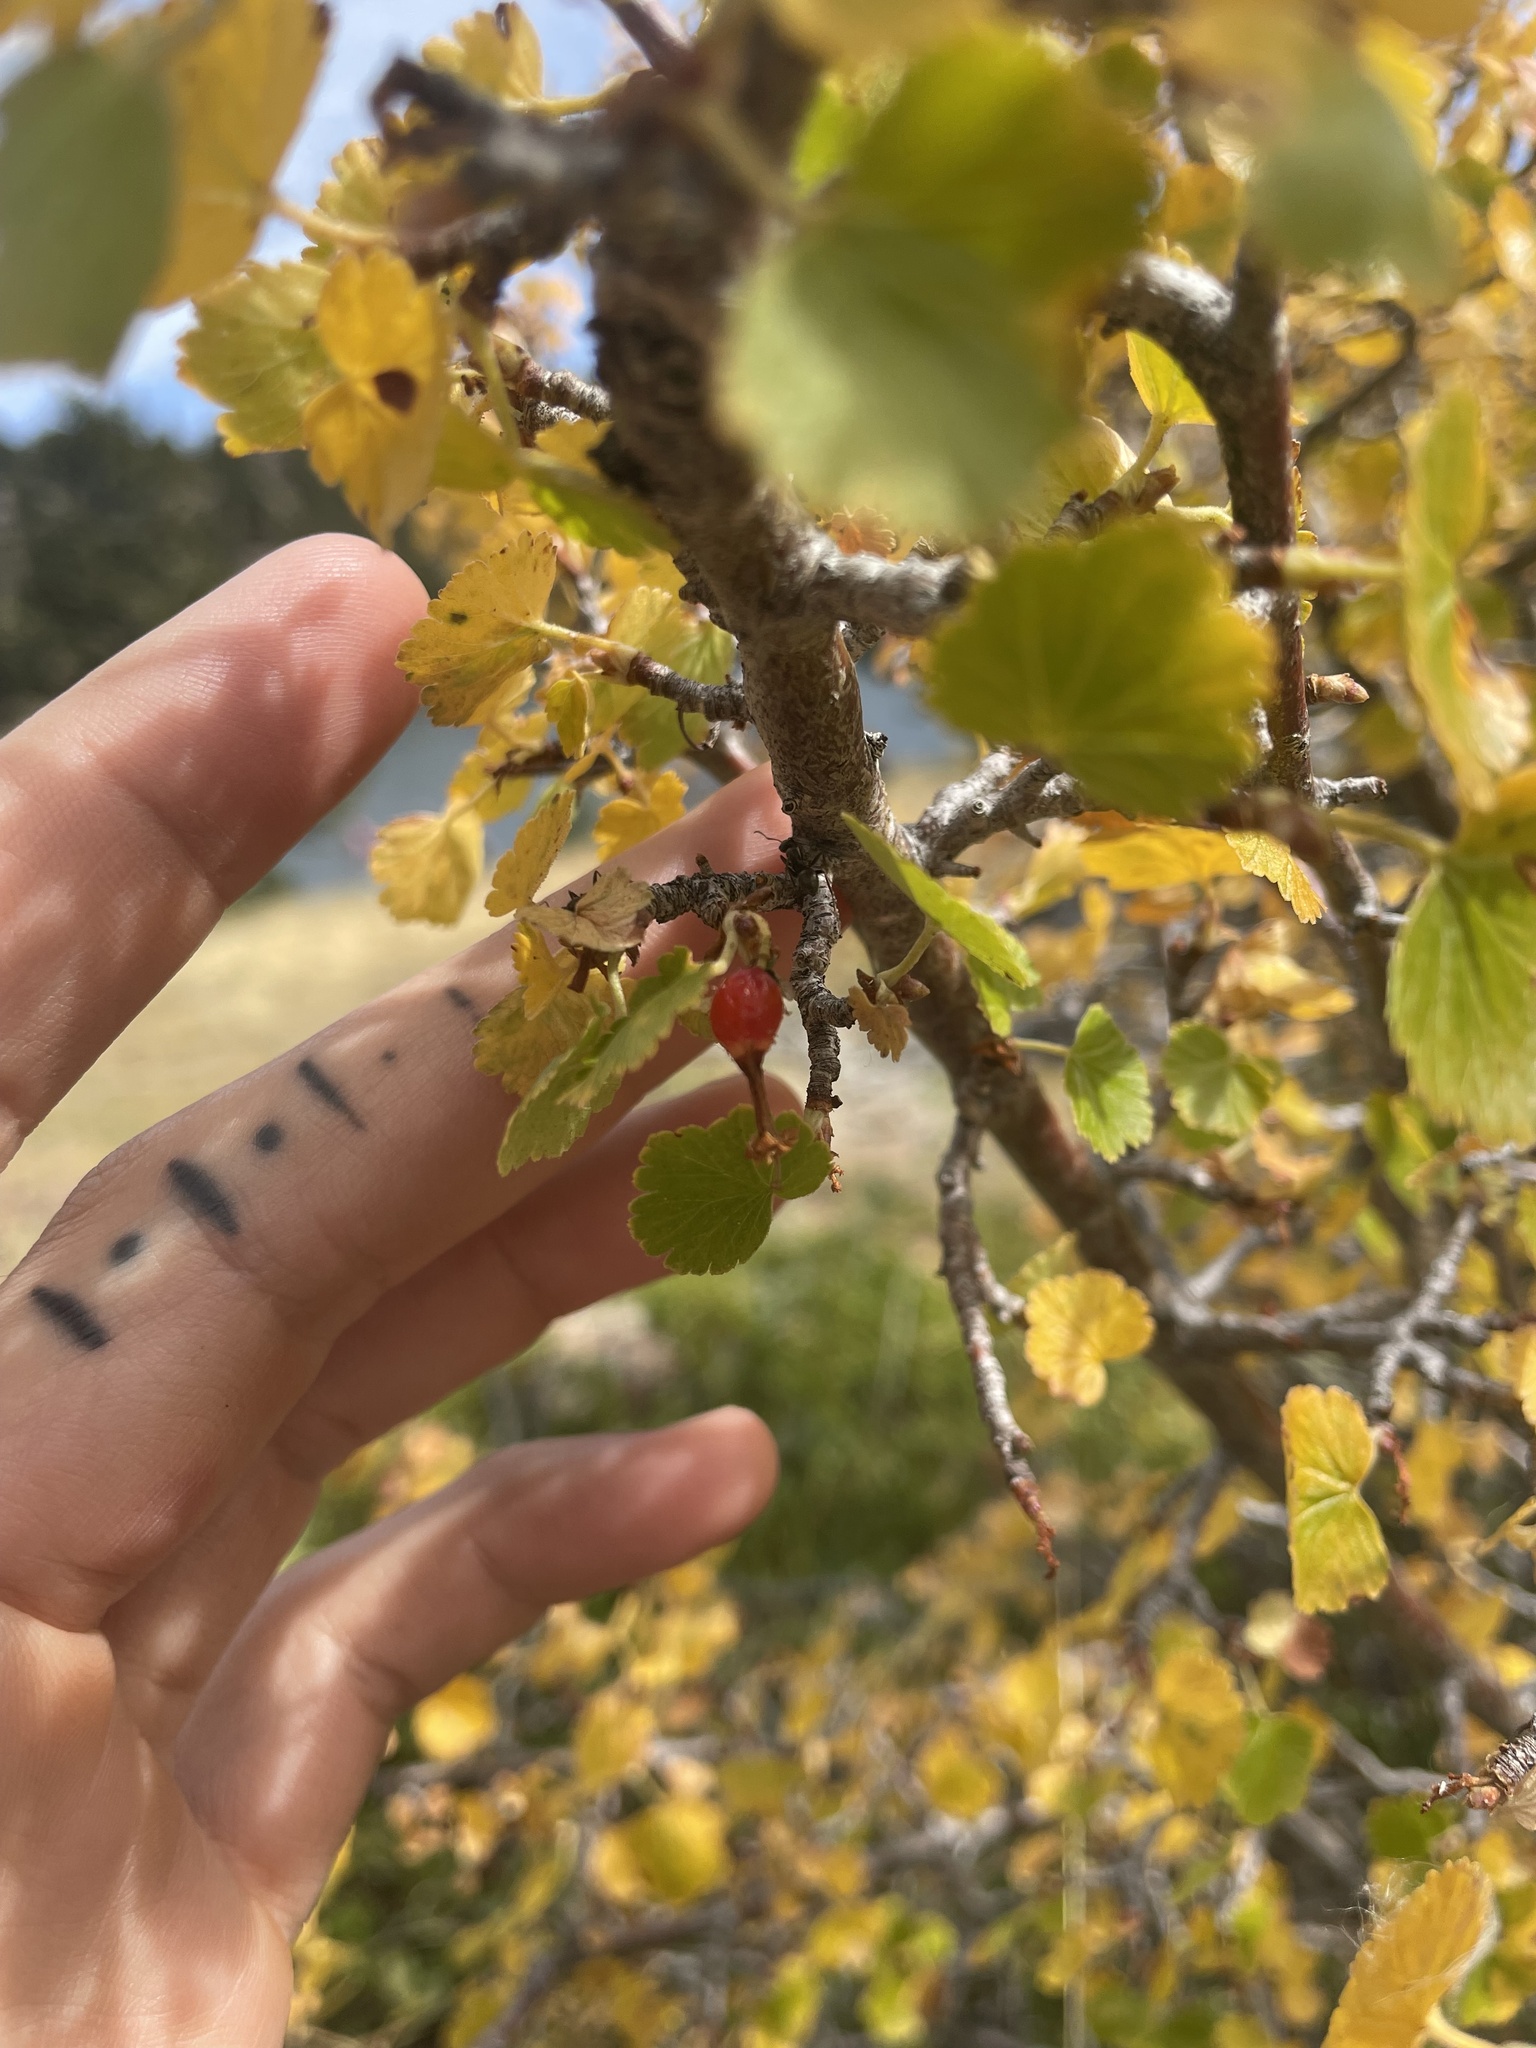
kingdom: Plantae
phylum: Tracheophyta
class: Magnoliopsida
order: Saxifragales
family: Grossulariaceae
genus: Ribes
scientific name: Ribes cereum
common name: Wax currant
